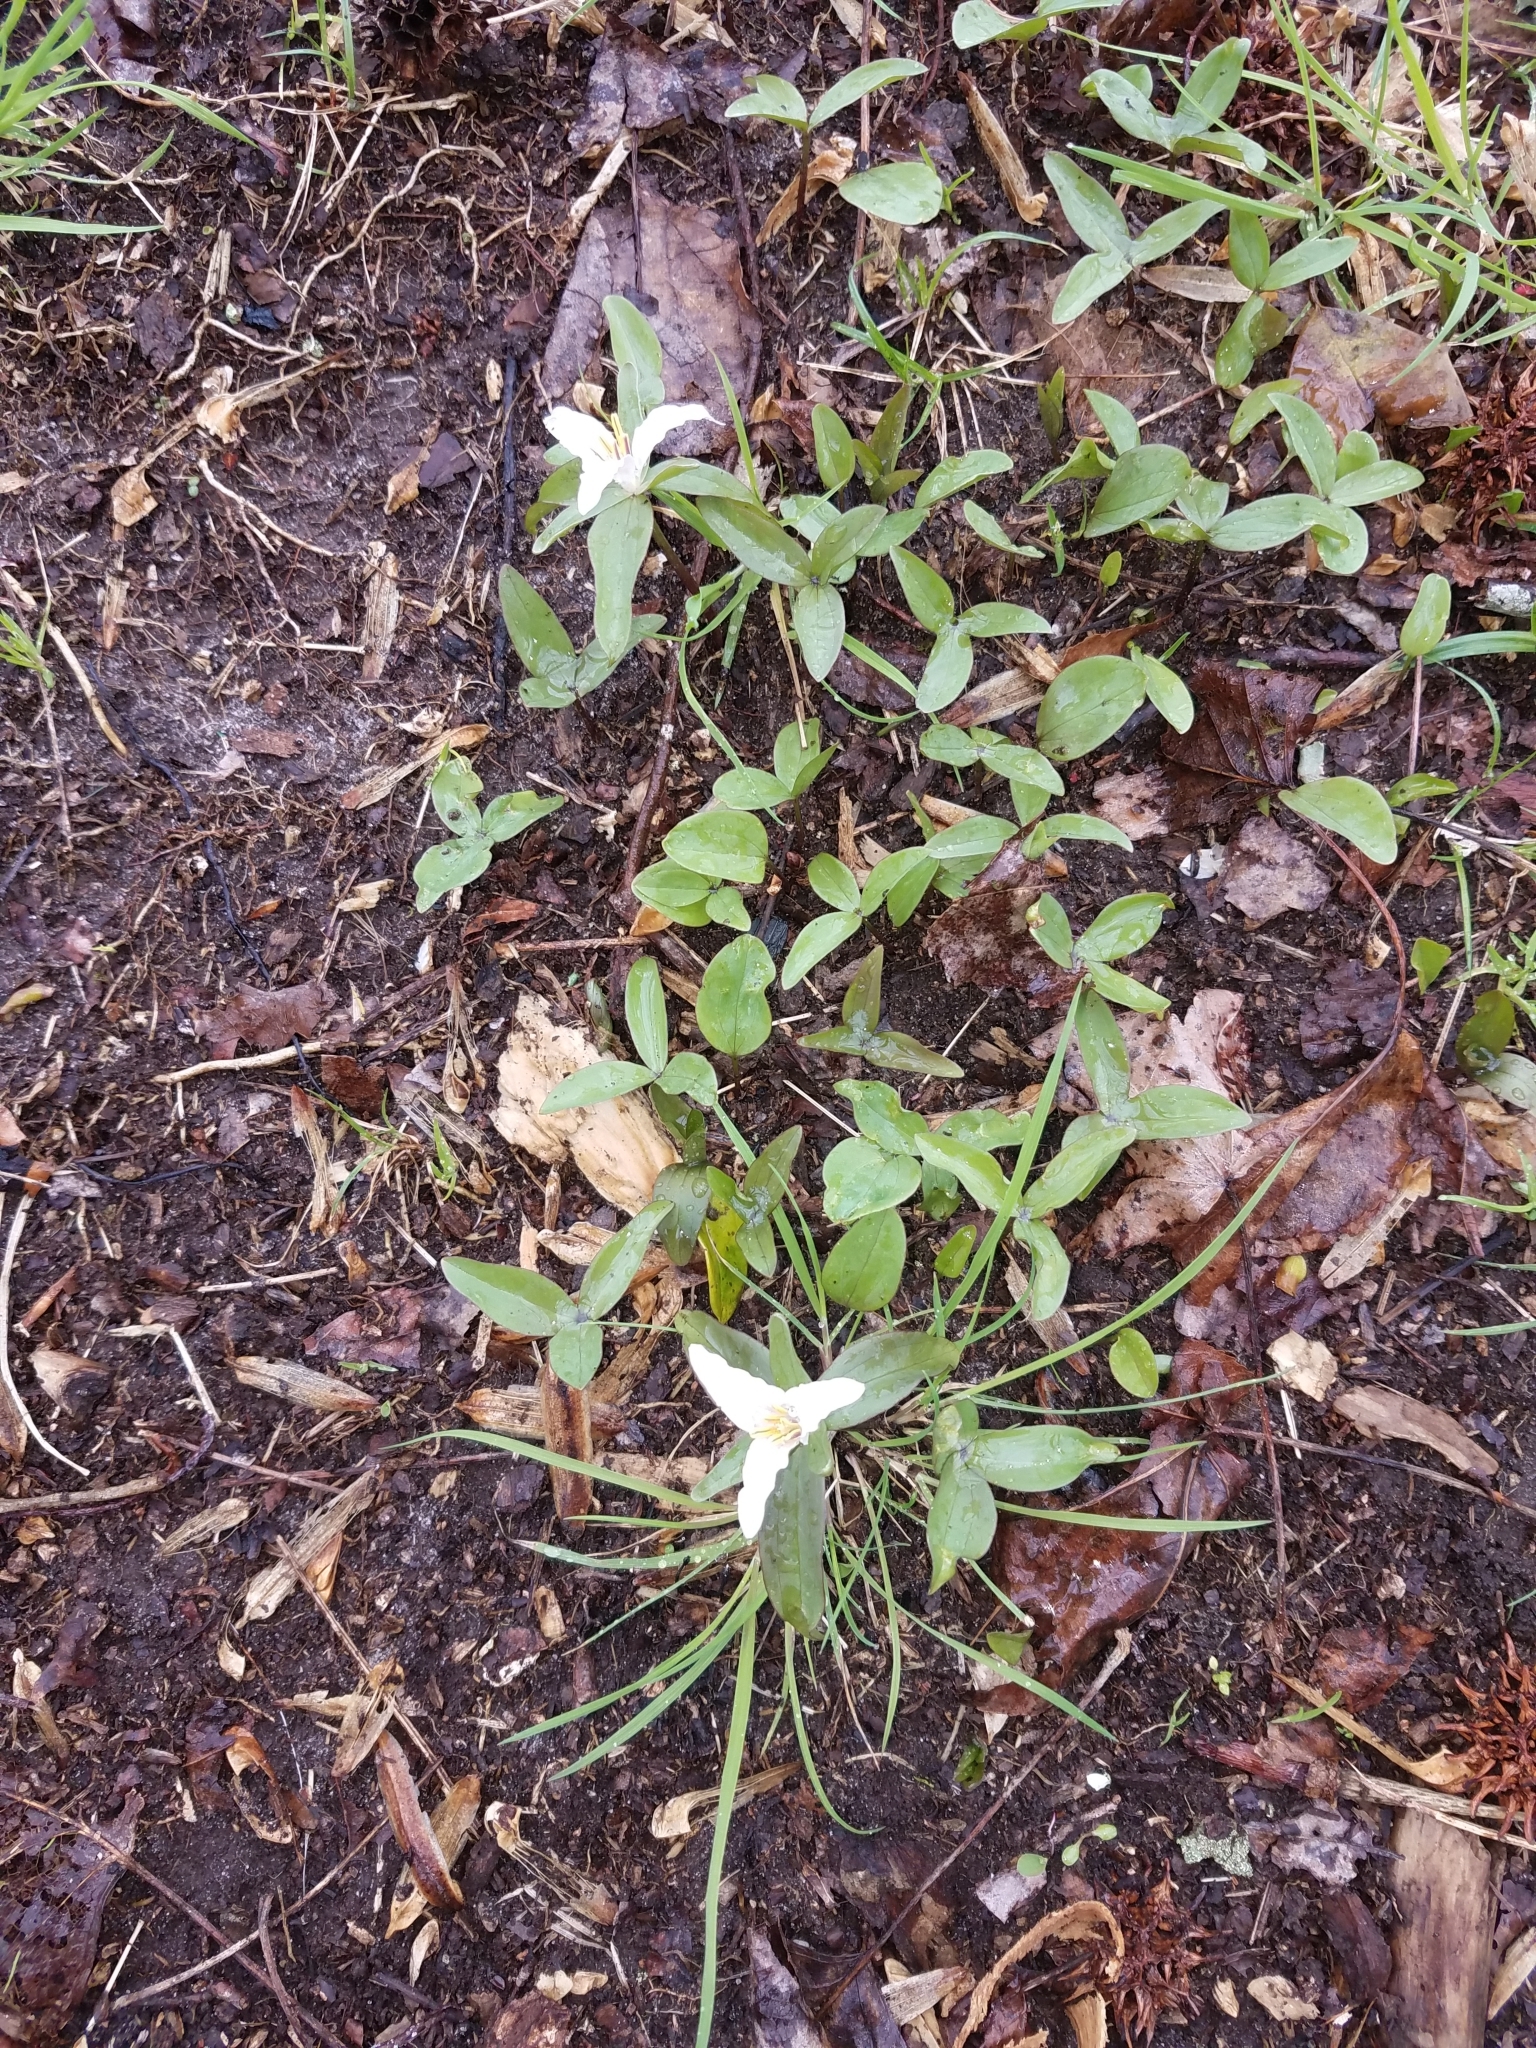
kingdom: Plantae
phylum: Tracheophyta
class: Liliopsida
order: Liliales
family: Melanthiaceae
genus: Trillium
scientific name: Trillium pusillum
